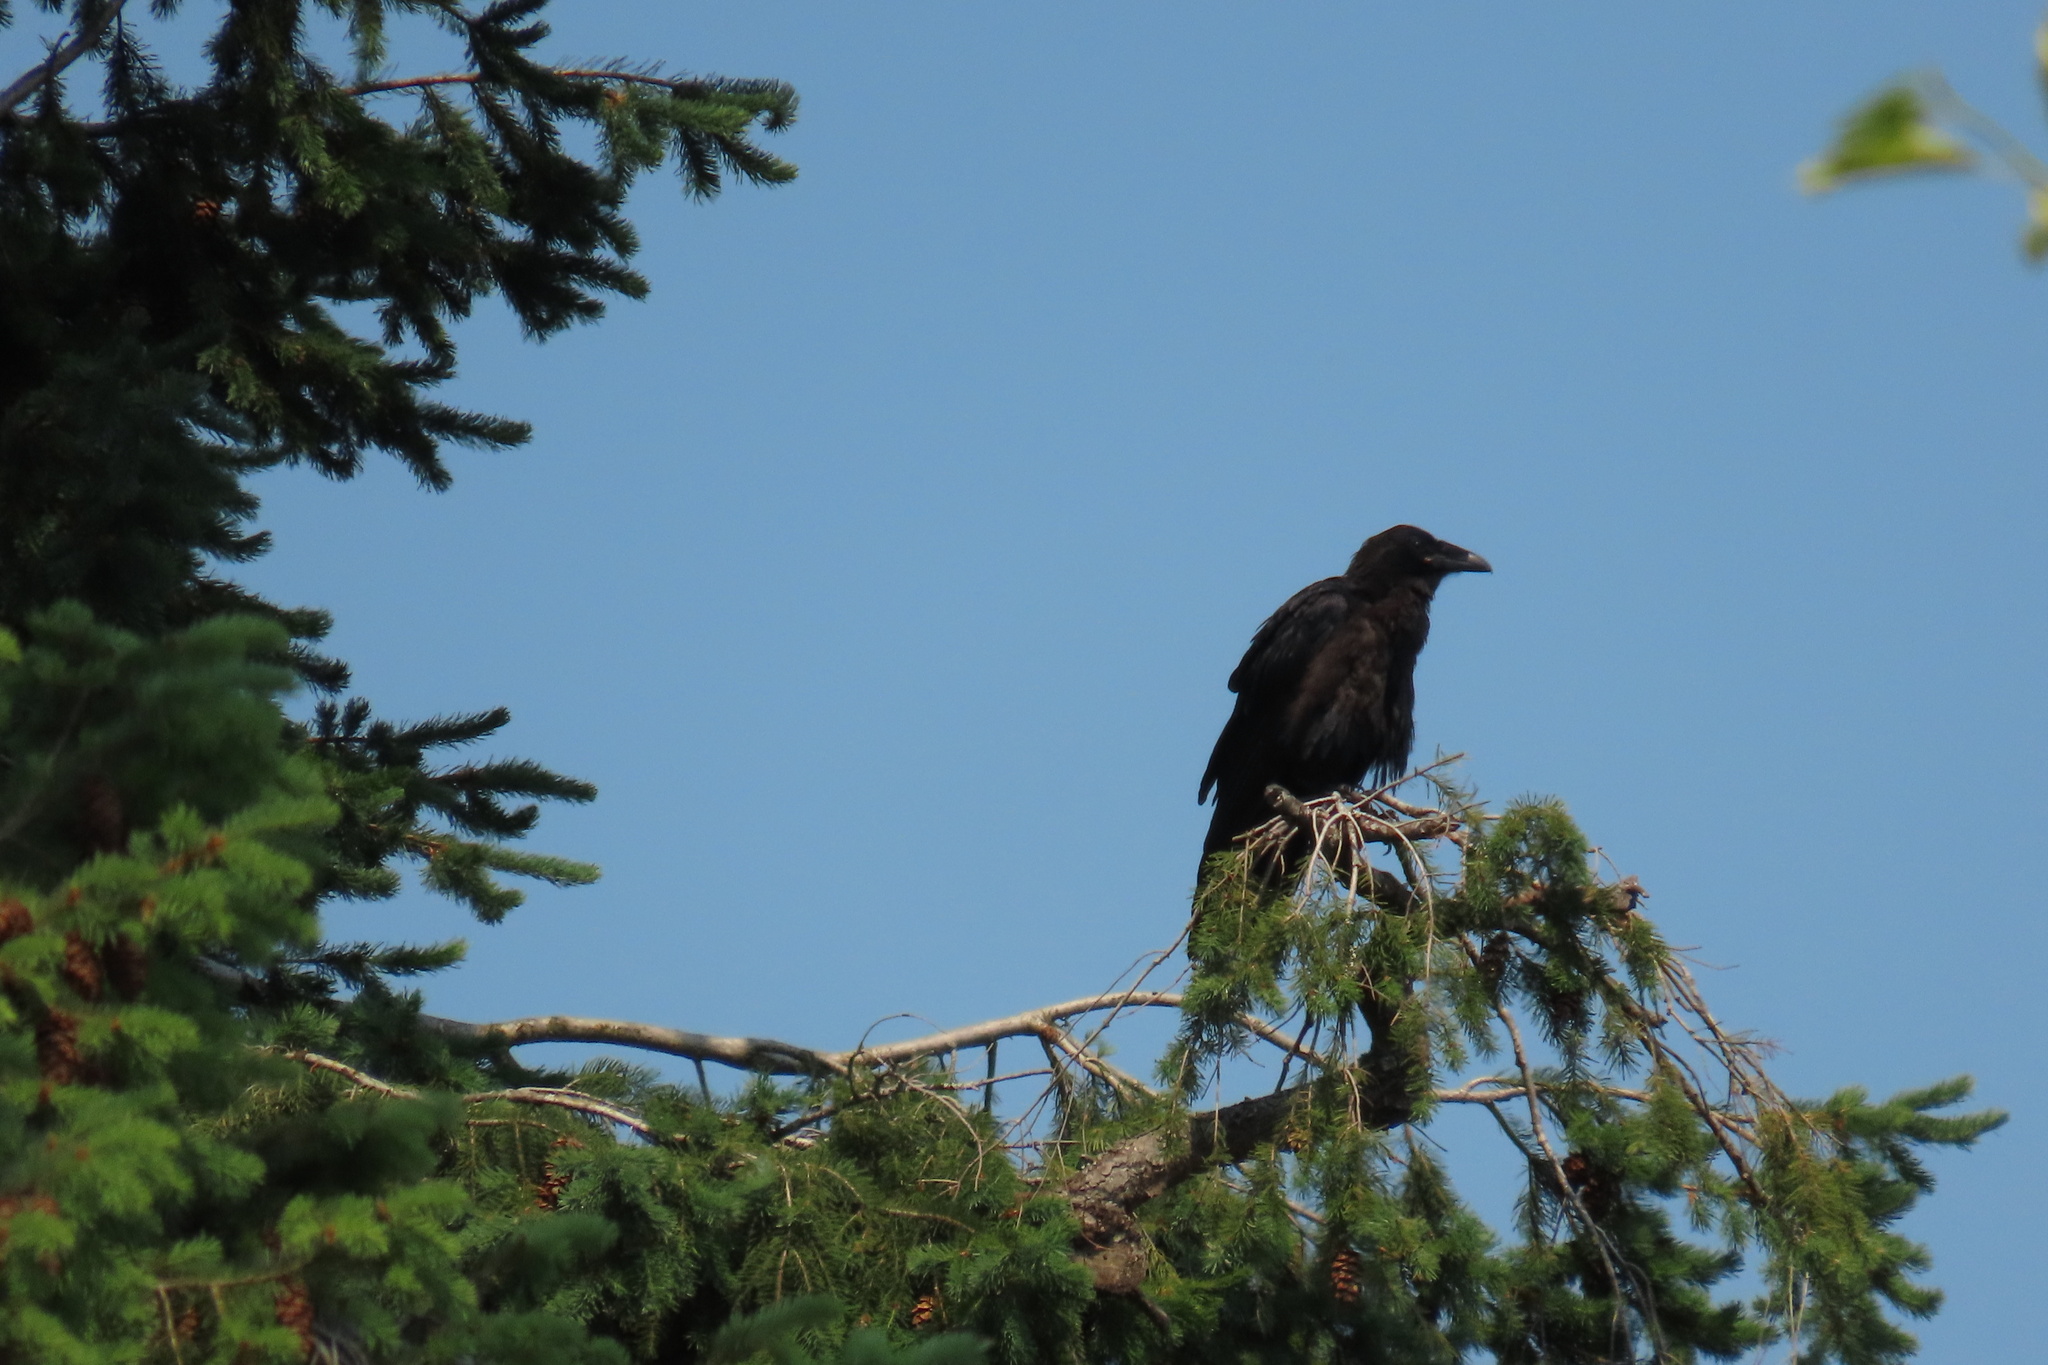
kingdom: Animalia
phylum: Chordata
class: Aves
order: Passeriformes
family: Corvidae
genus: Corvus
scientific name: Corvus corax
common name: Common raven
